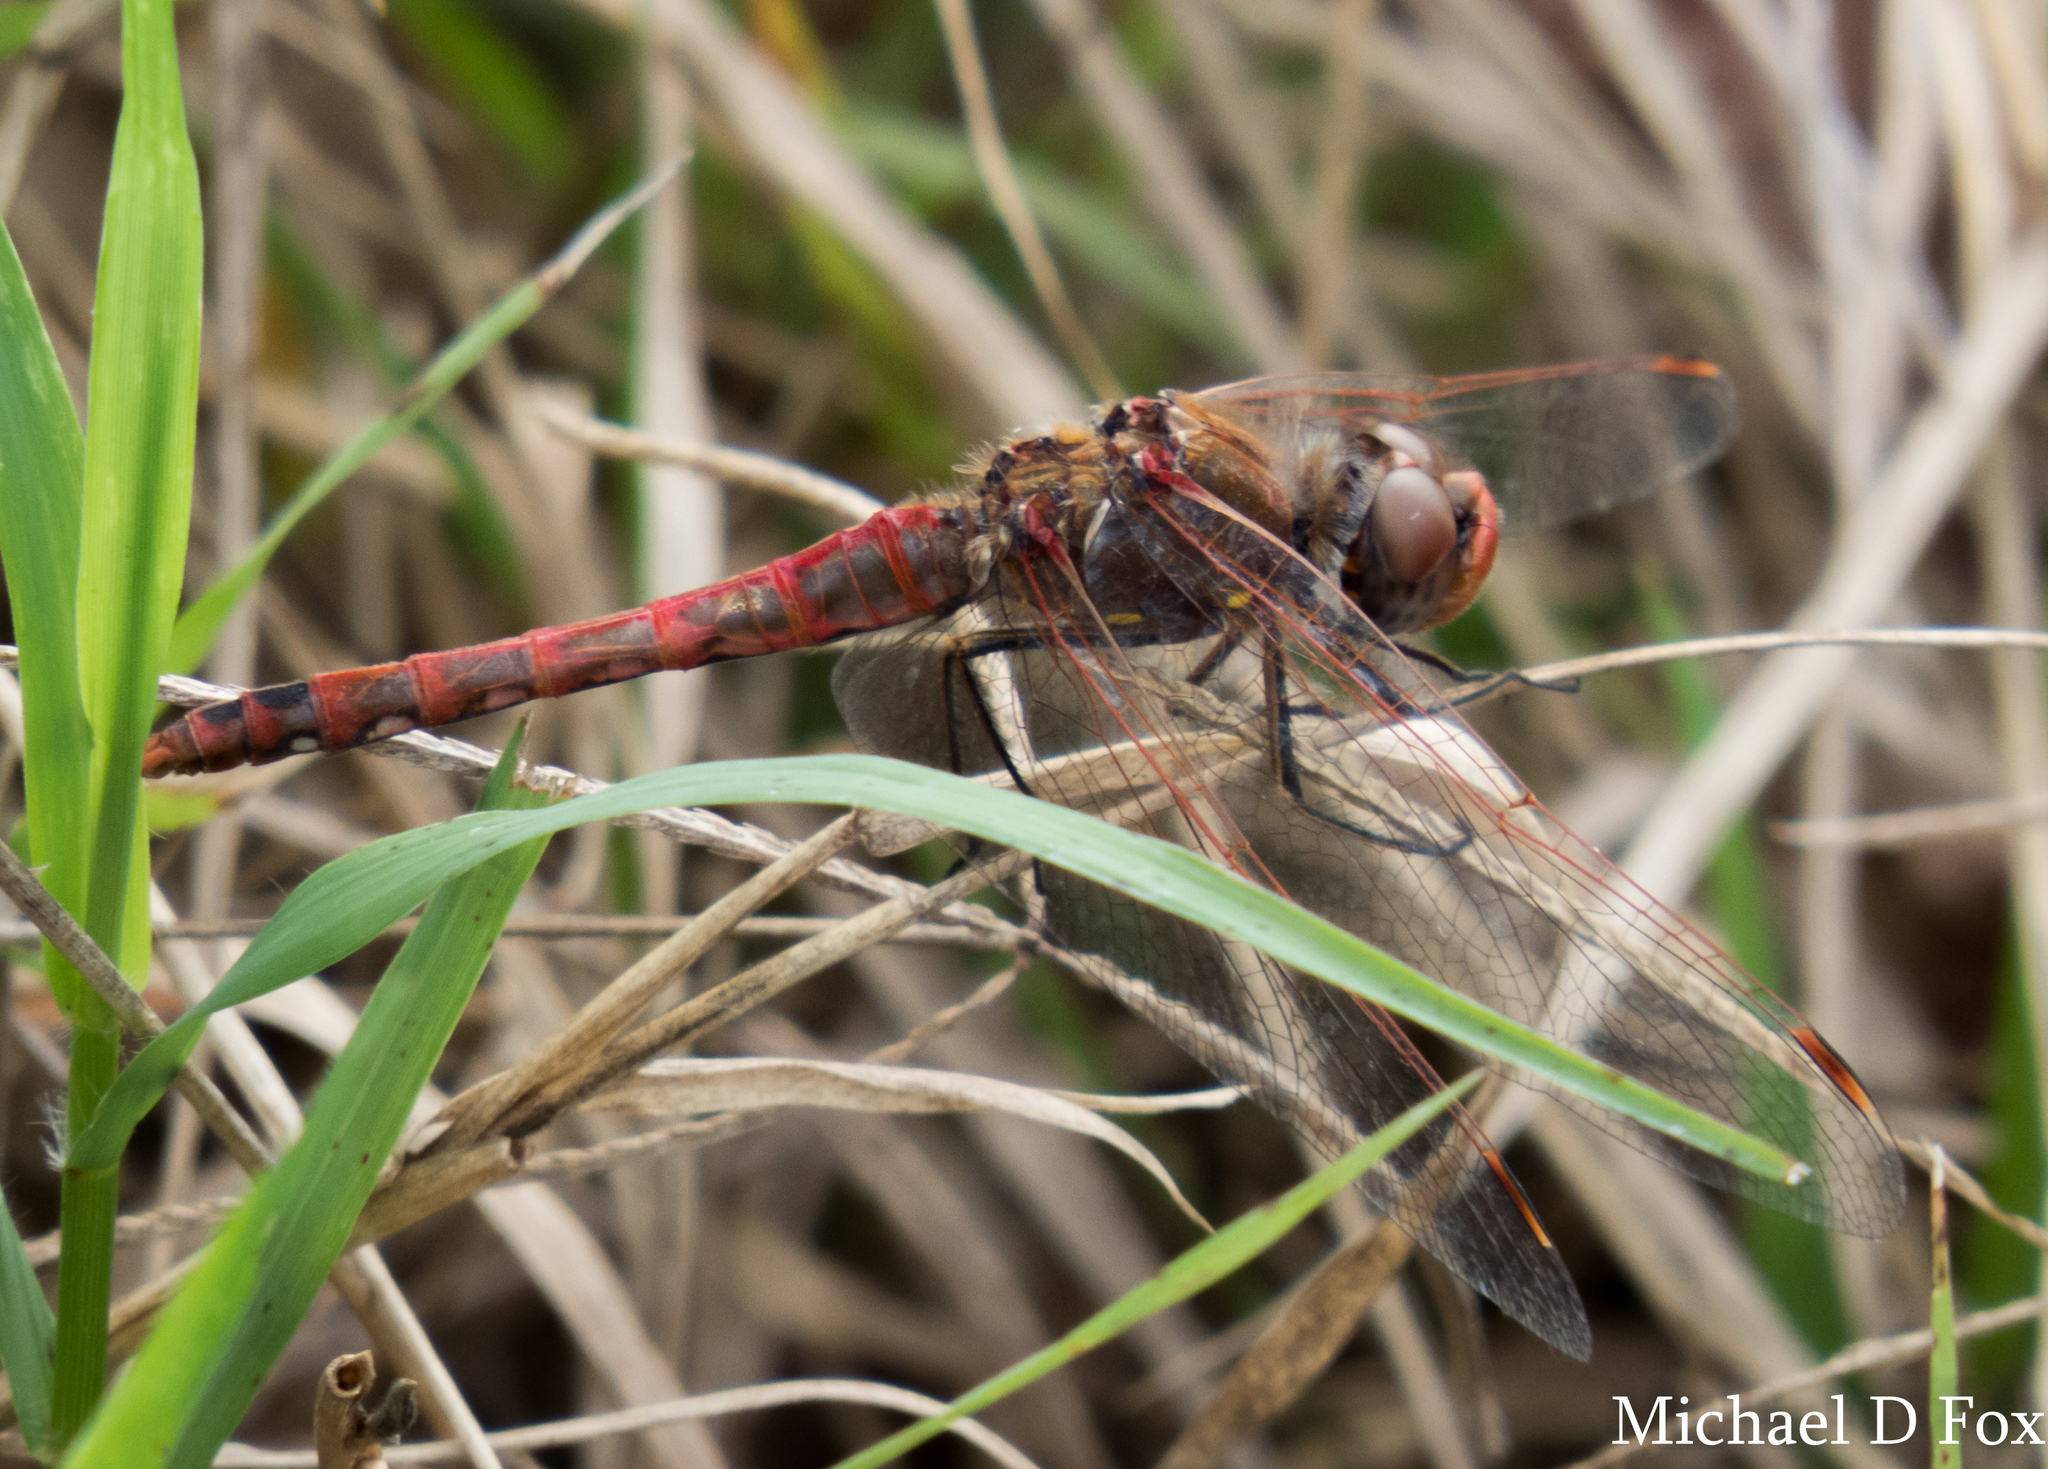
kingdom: Animalia
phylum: Arthropoda
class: Insecta
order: Odonata
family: Libellulidae
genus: Sympetrum
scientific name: Sympetrum corruptum
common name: Variegated meadowhawk
